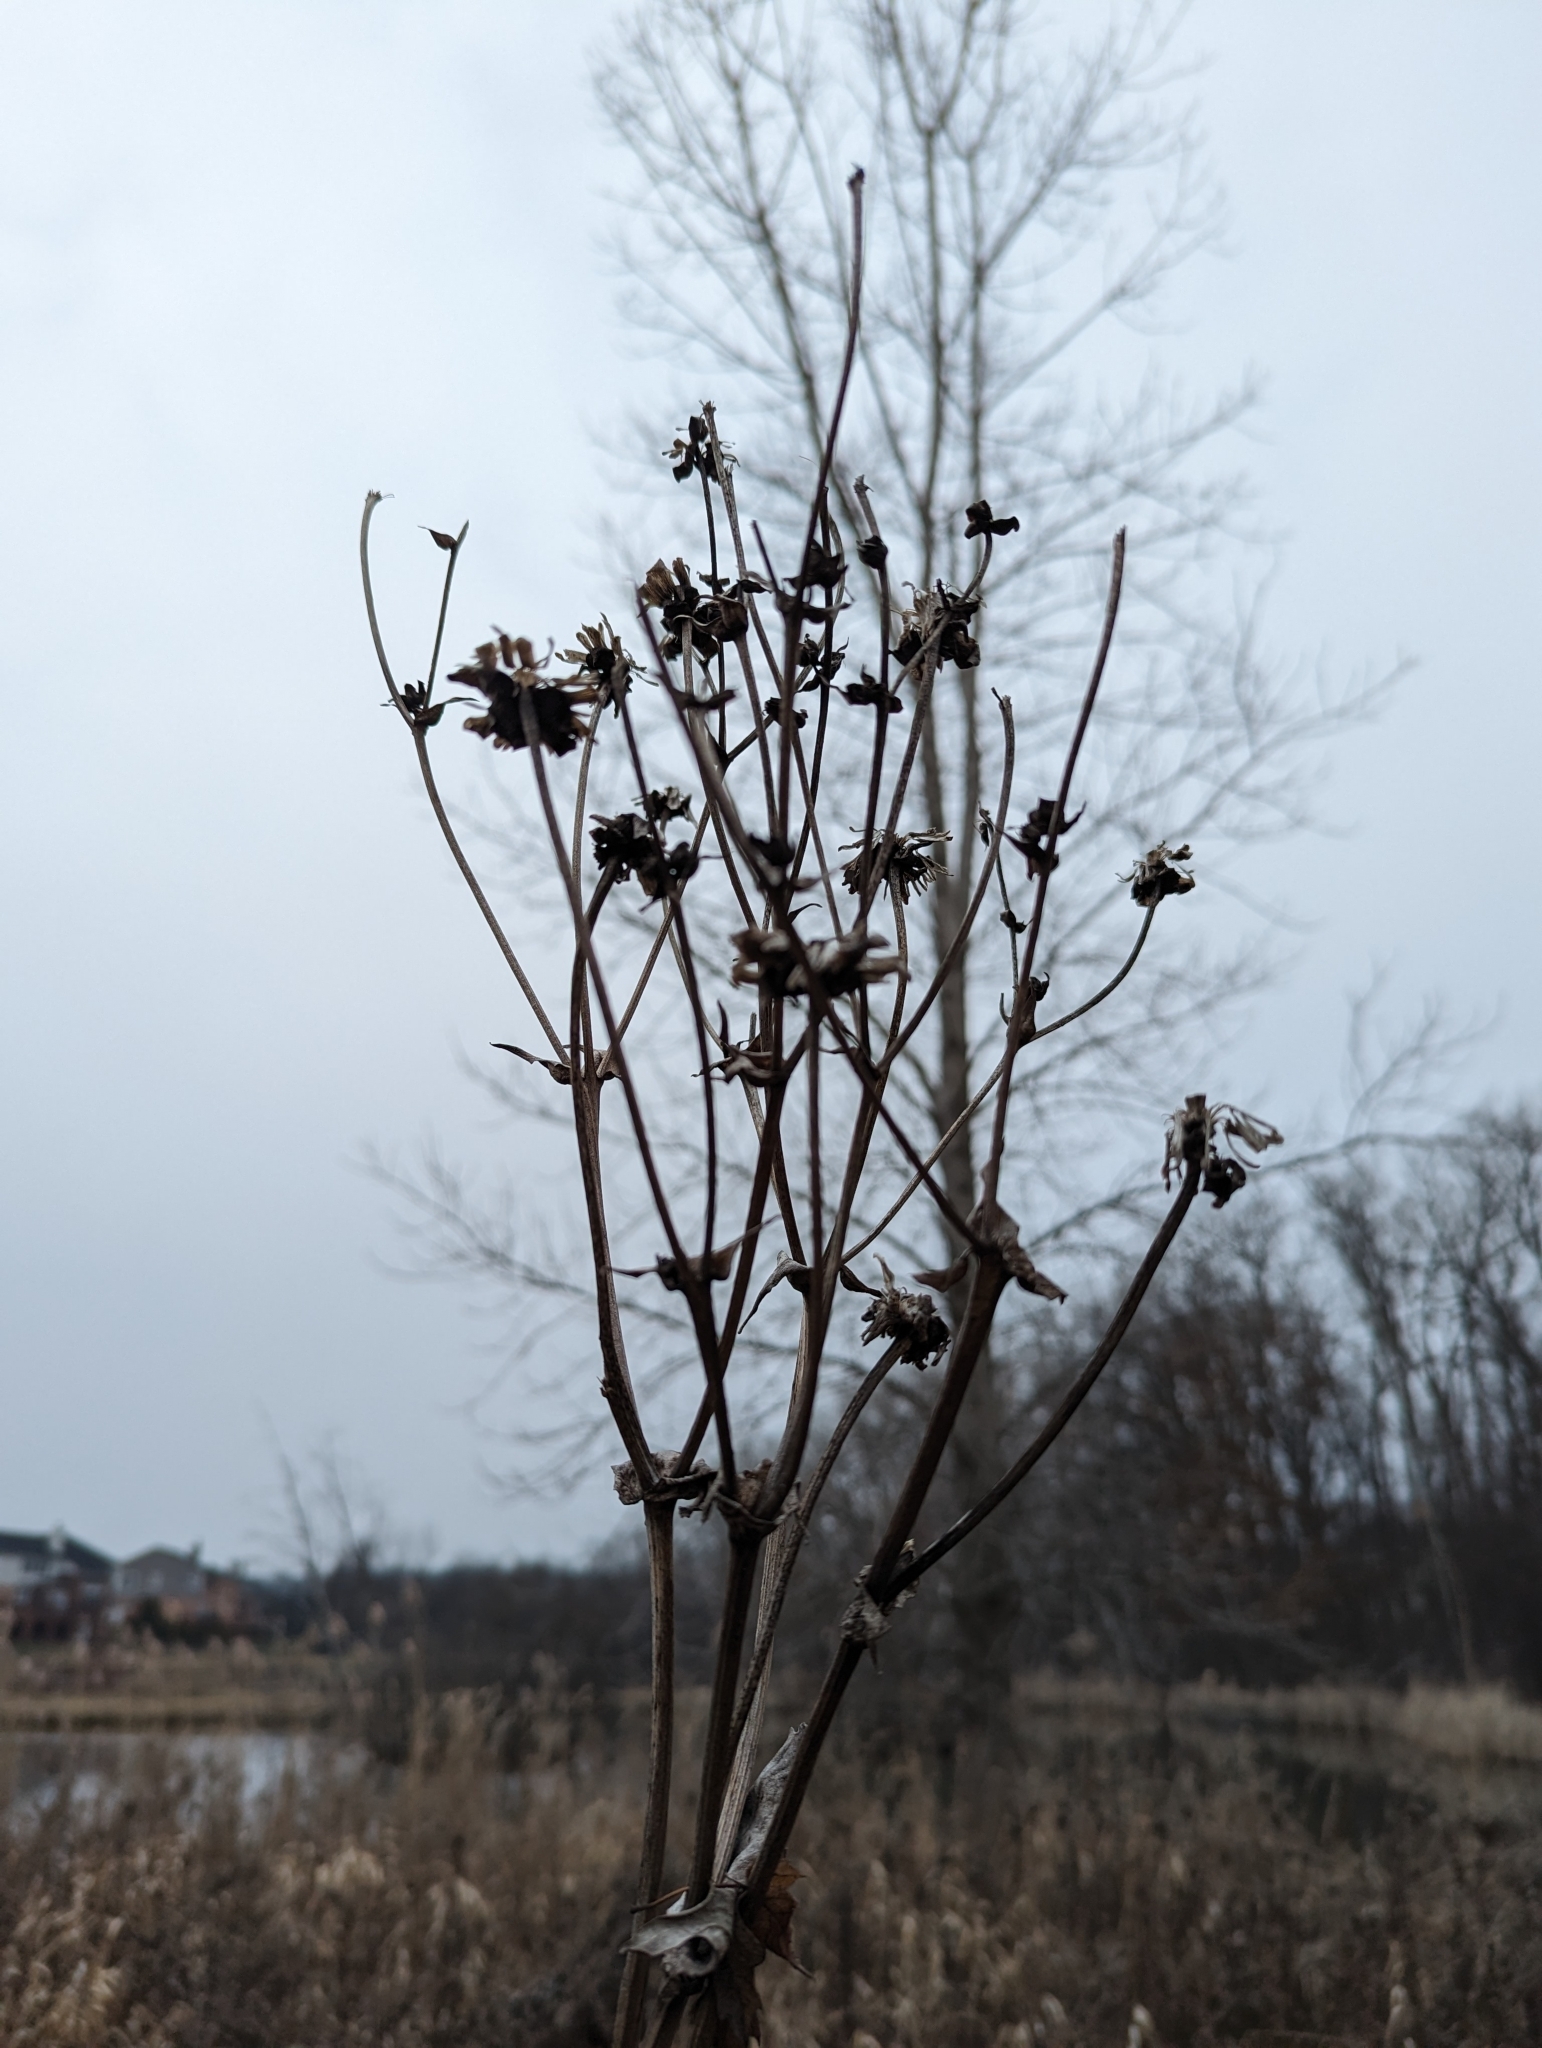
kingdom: Plantae
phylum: Tracheophyta
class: Magnoliopsida
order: Asterales
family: Asteraceae
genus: Silphium
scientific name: Silphium perfoliatum
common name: Cup-plant
